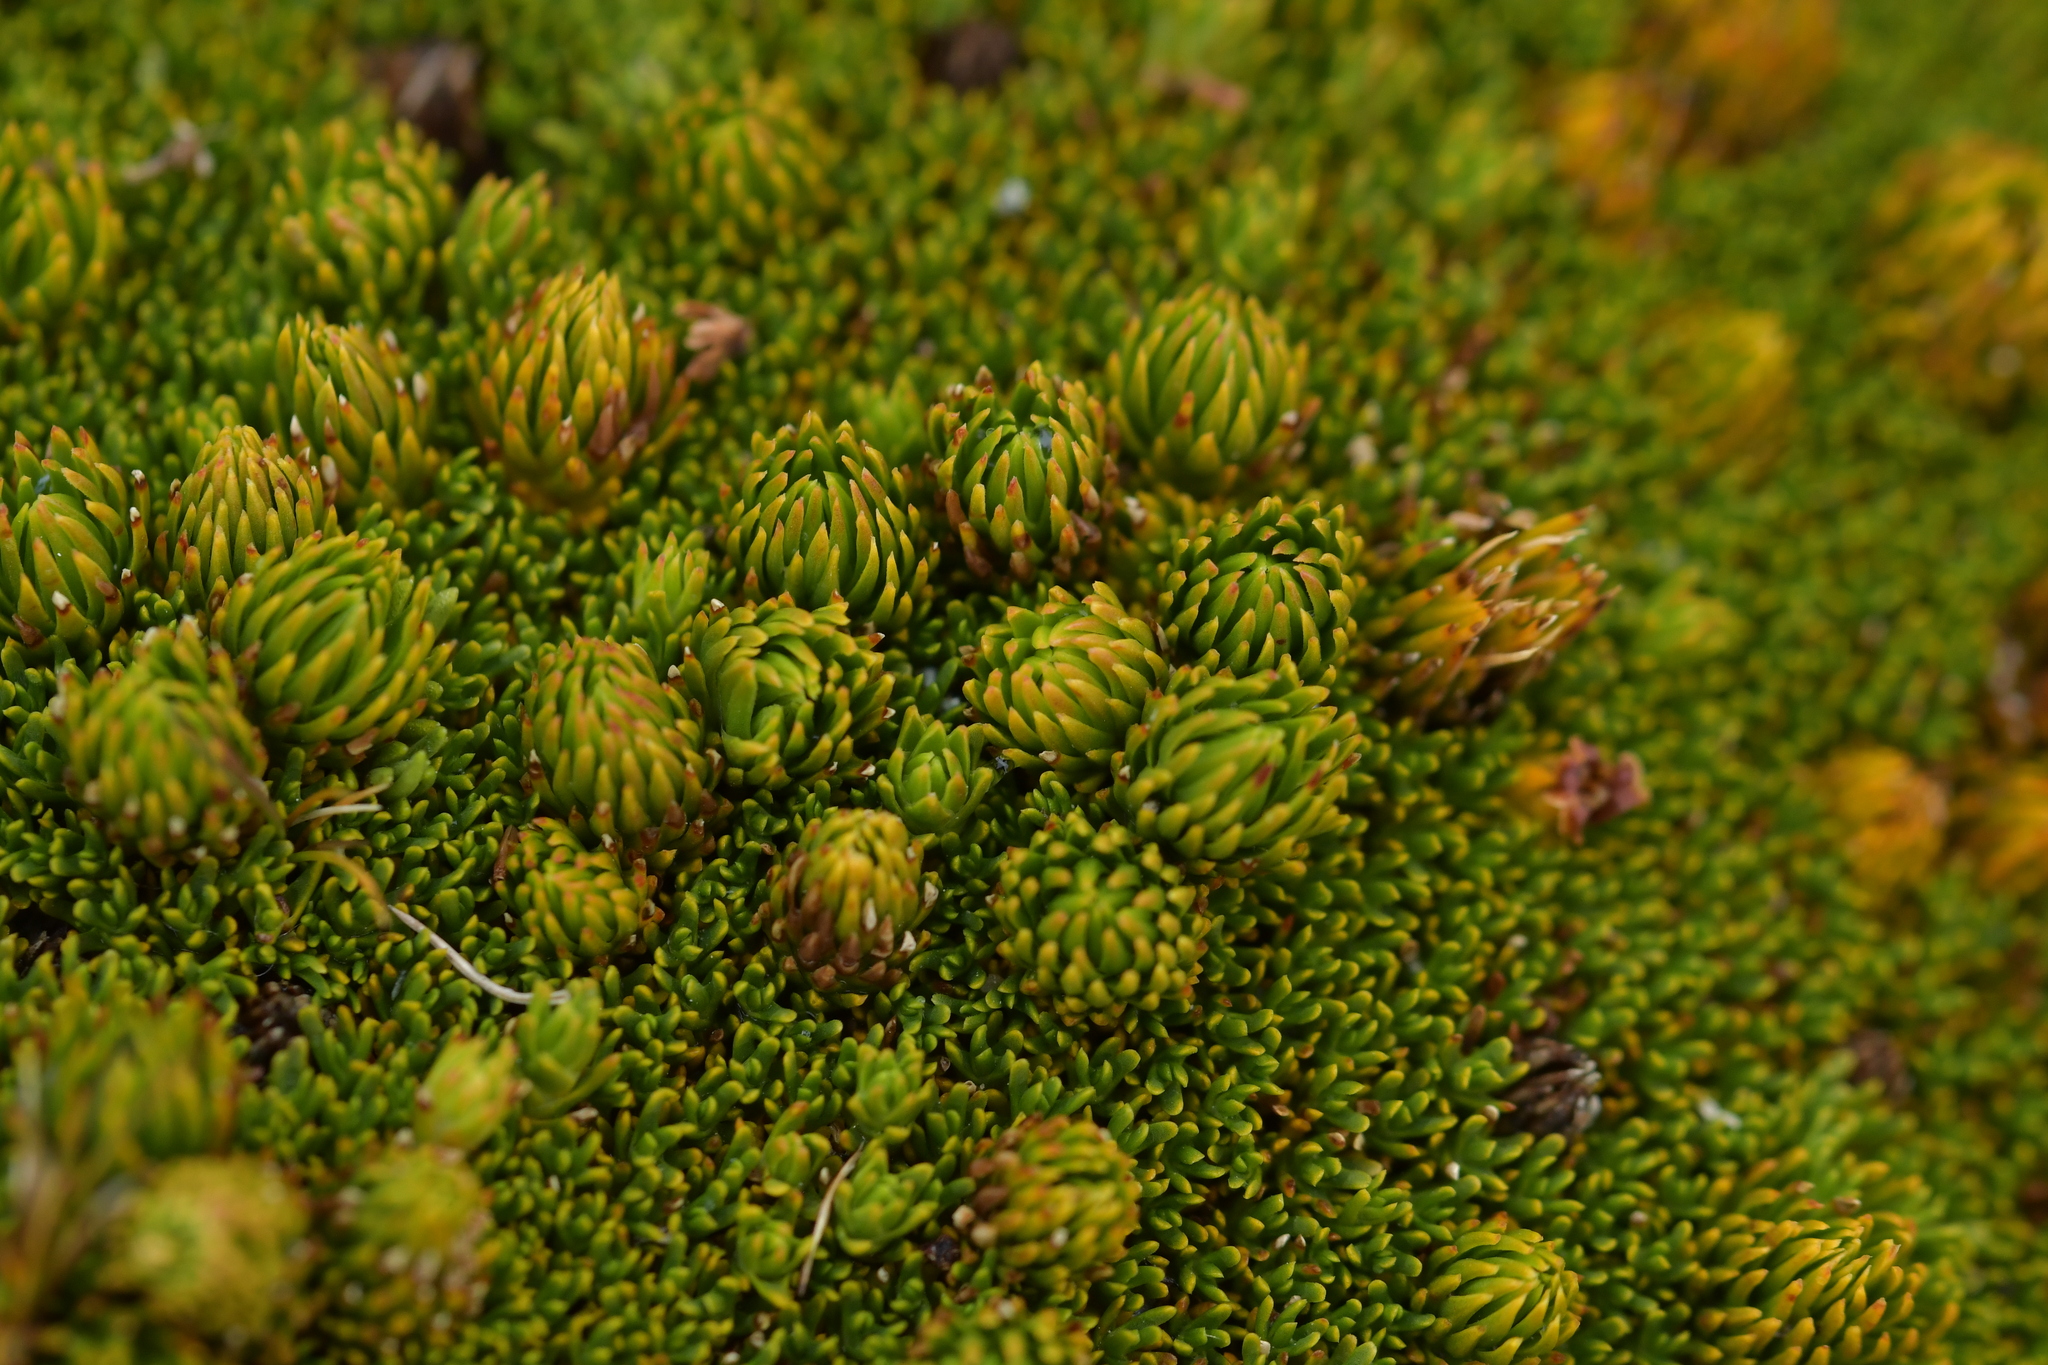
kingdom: Plantae
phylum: Tracheophyta
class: Magnoliopsida
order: Ericales
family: Ericaceae
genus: Dracophyllum
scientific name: Dracophyllum muscoides
